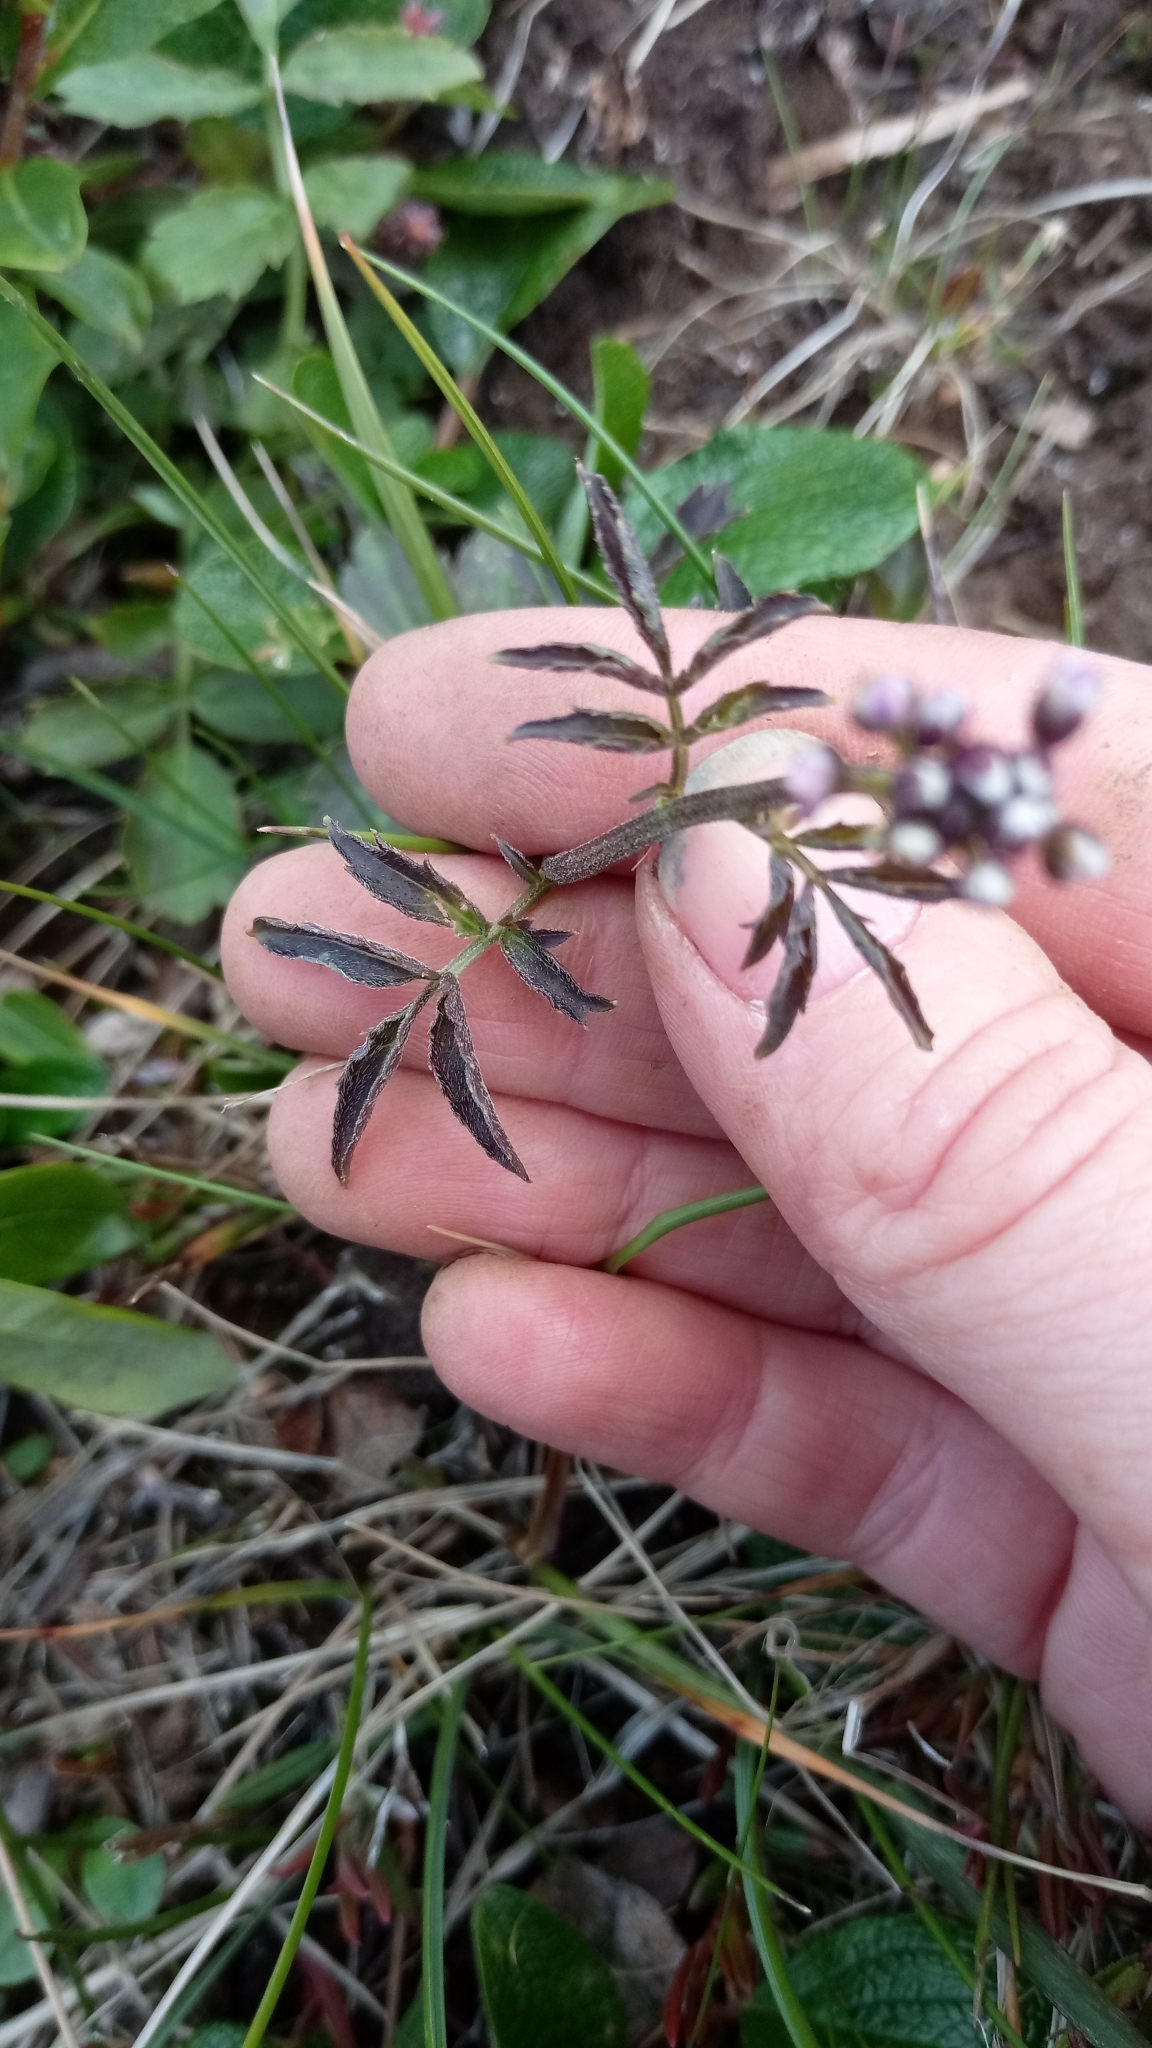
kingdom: Plantae
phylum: Tracheophyta
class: Magnoliopsida
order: Brassicales
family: Brassicaceae
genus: Cardamine
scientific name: Cardamine macrophylla
